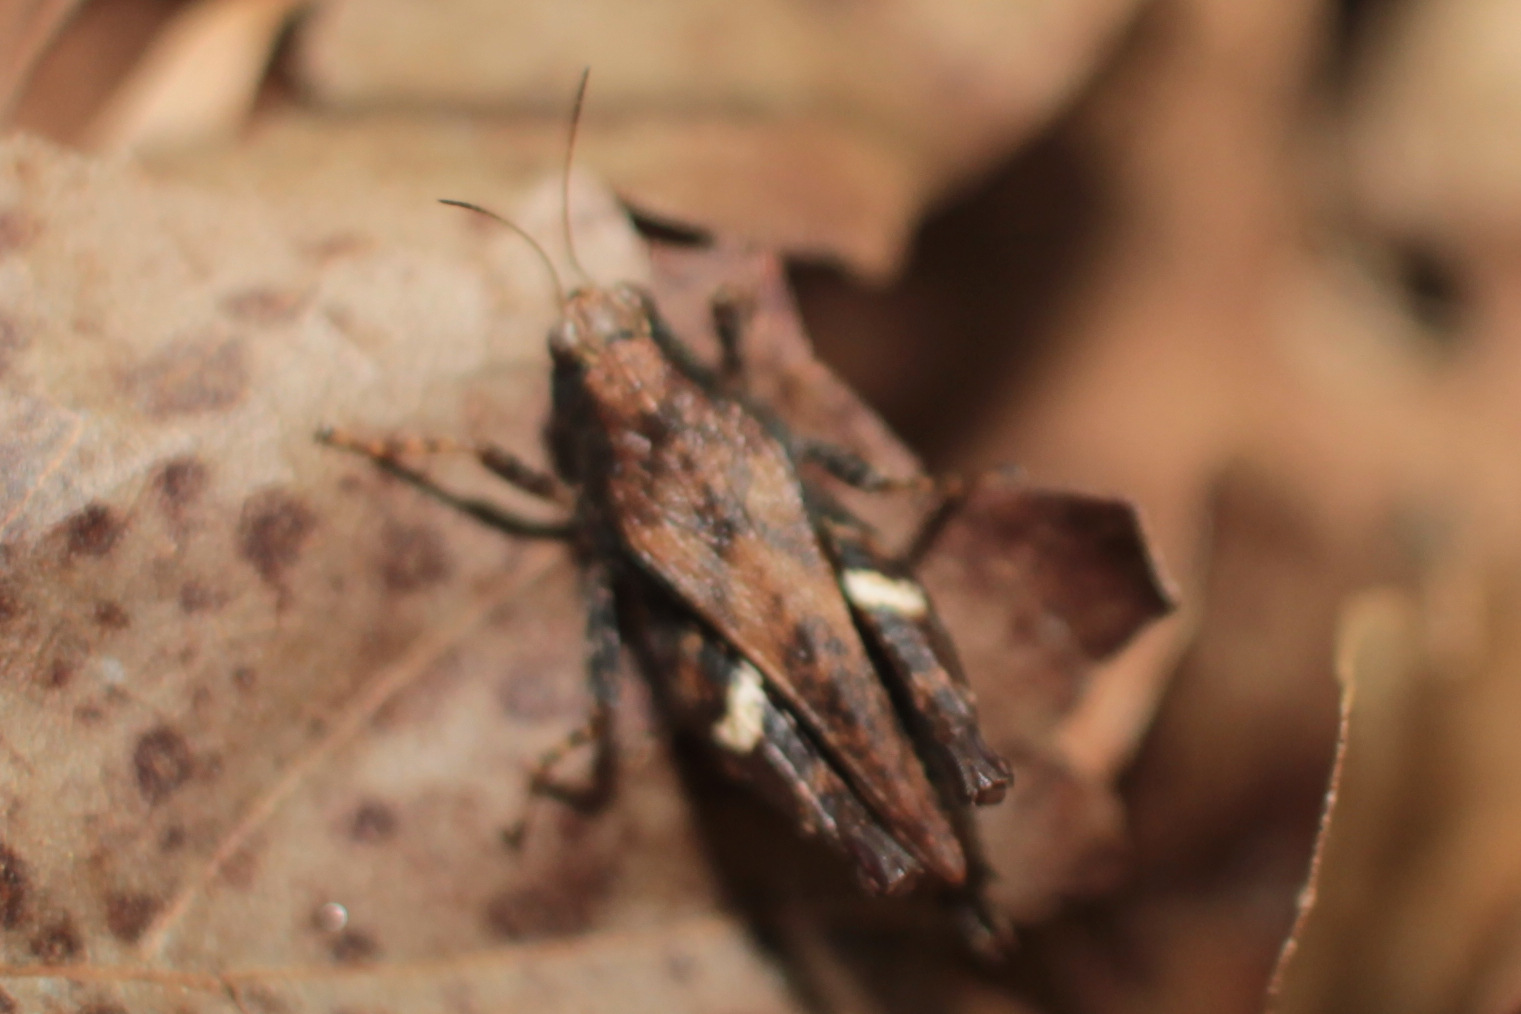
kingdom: Animalia
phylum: Arthropoda
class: Insecta
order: Orthoptera
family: Tetrigidae
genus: Tettigidea
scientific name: Tettigidea laterale
